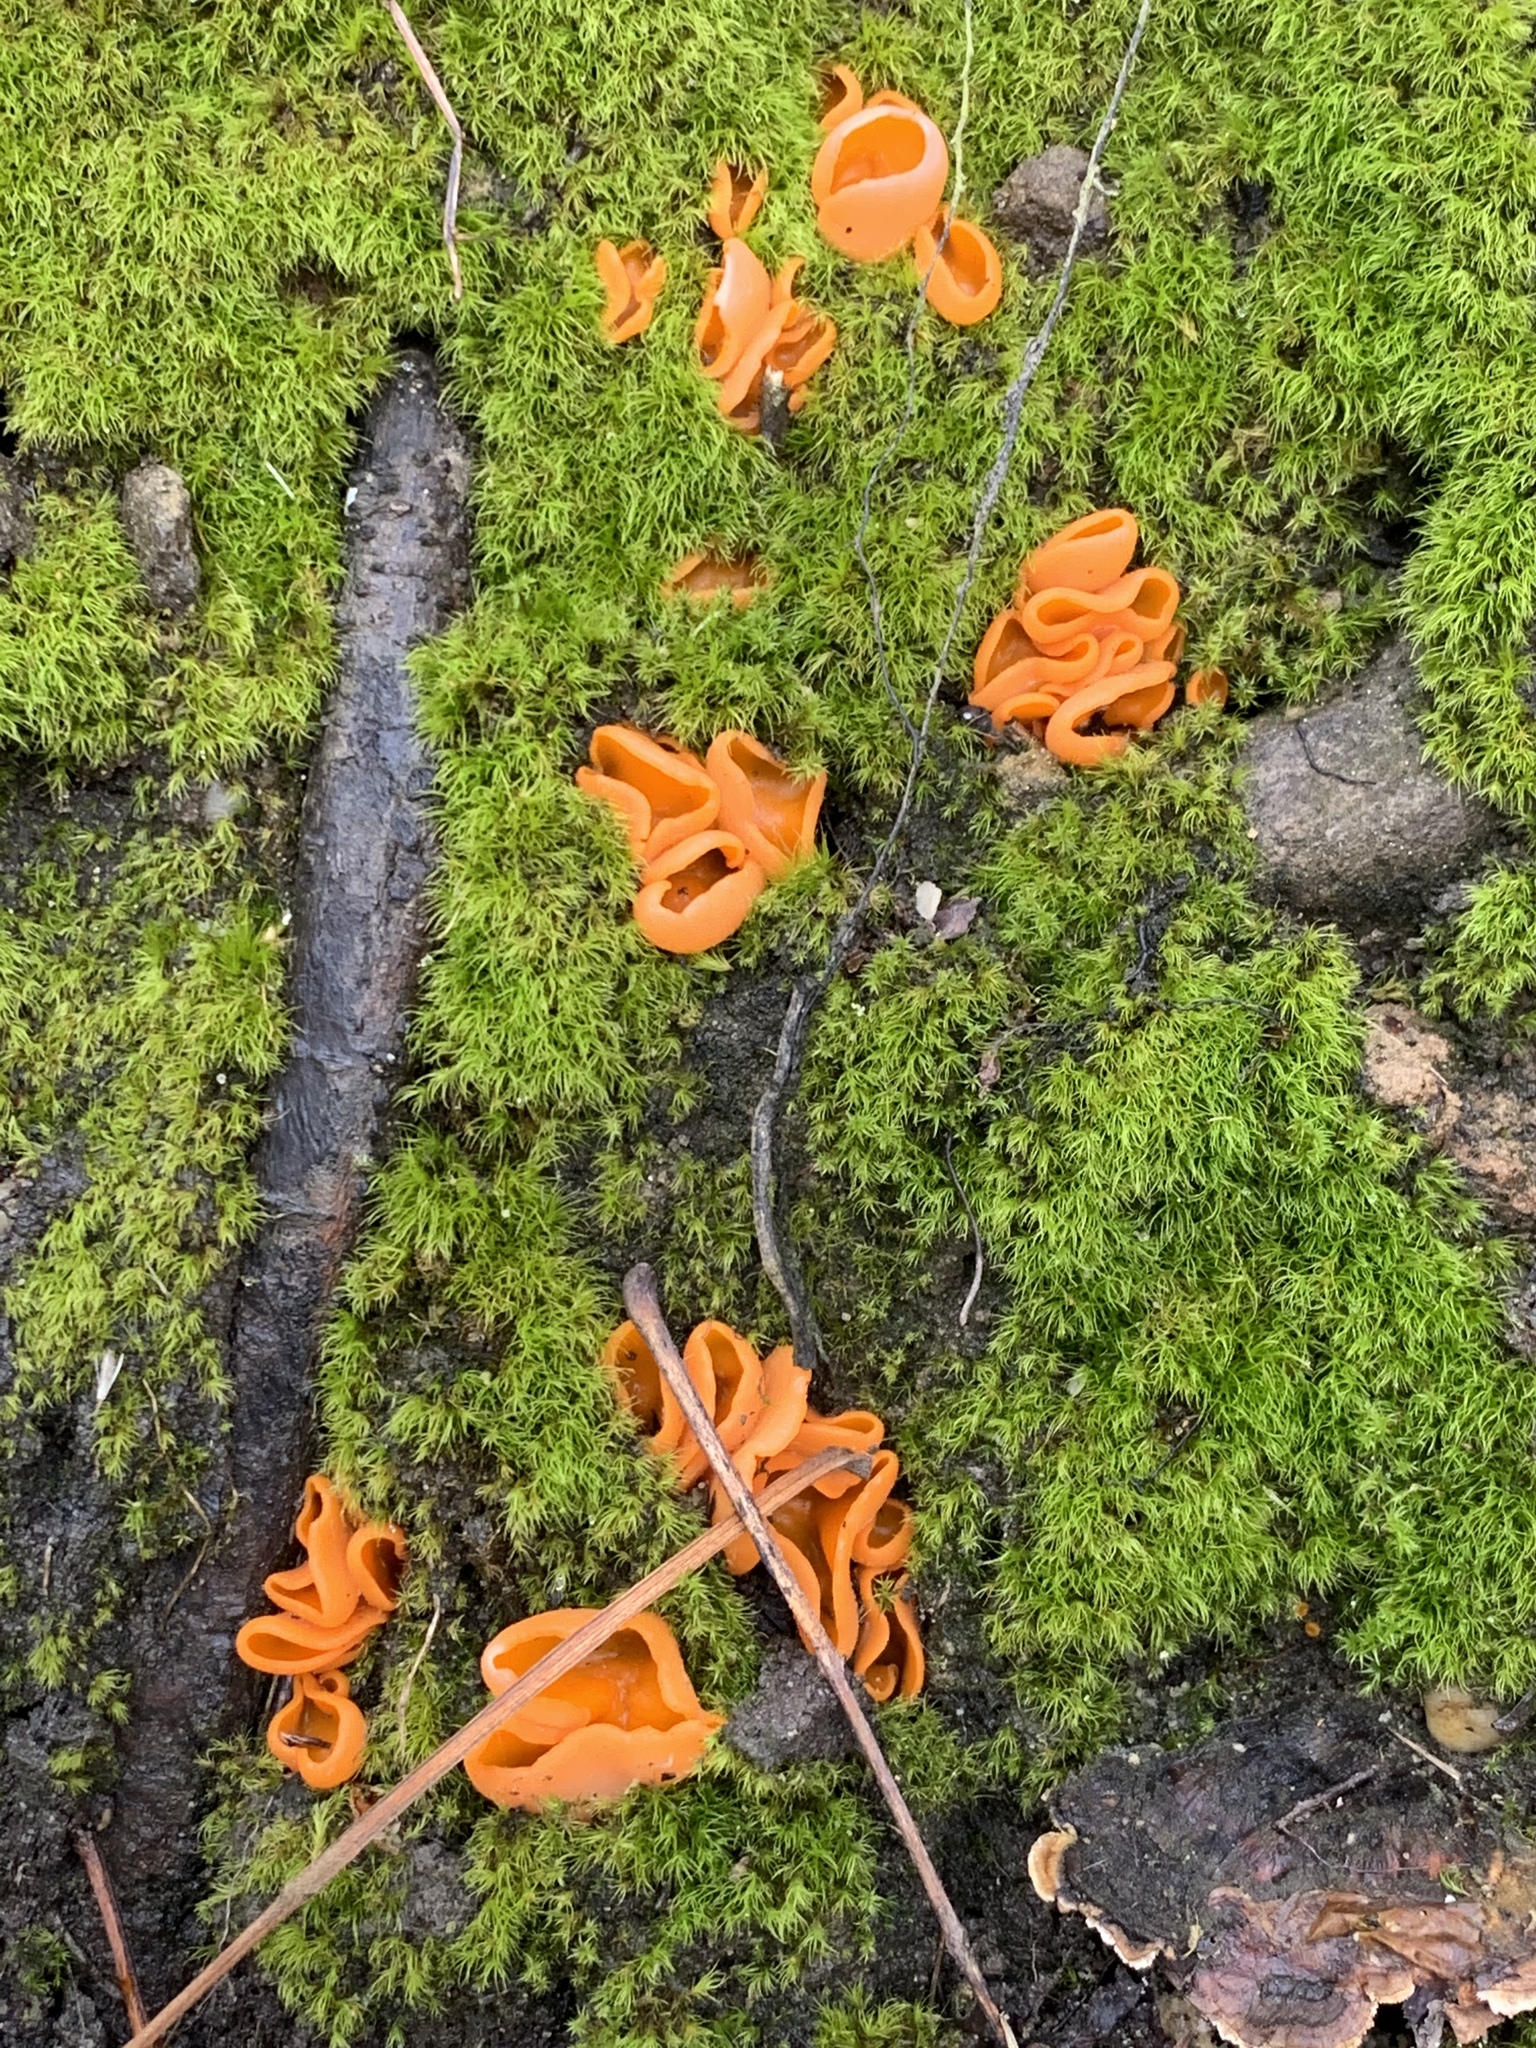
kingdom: Fungi
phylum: Ascomycota
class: Pezizomycetes
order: Pezizales
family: Pyronemataceae
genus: Aleuria
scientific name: Aleuria aurantia
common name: Orange peel fungus
